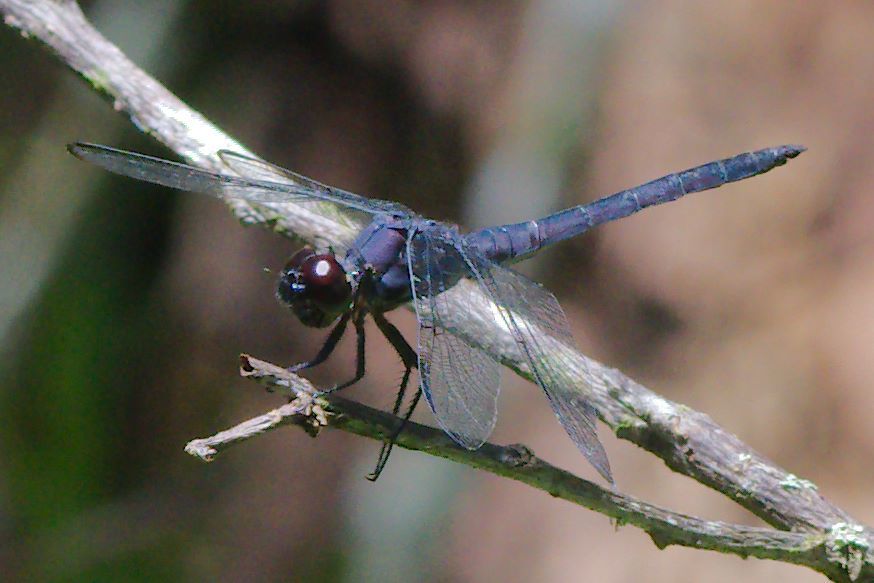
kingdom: Animalia
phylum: Arthropoda
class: Insecta
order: Odonata
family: Libellulidae
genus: Libellula
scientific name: Libellula incesta
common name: Slaty skimmer
